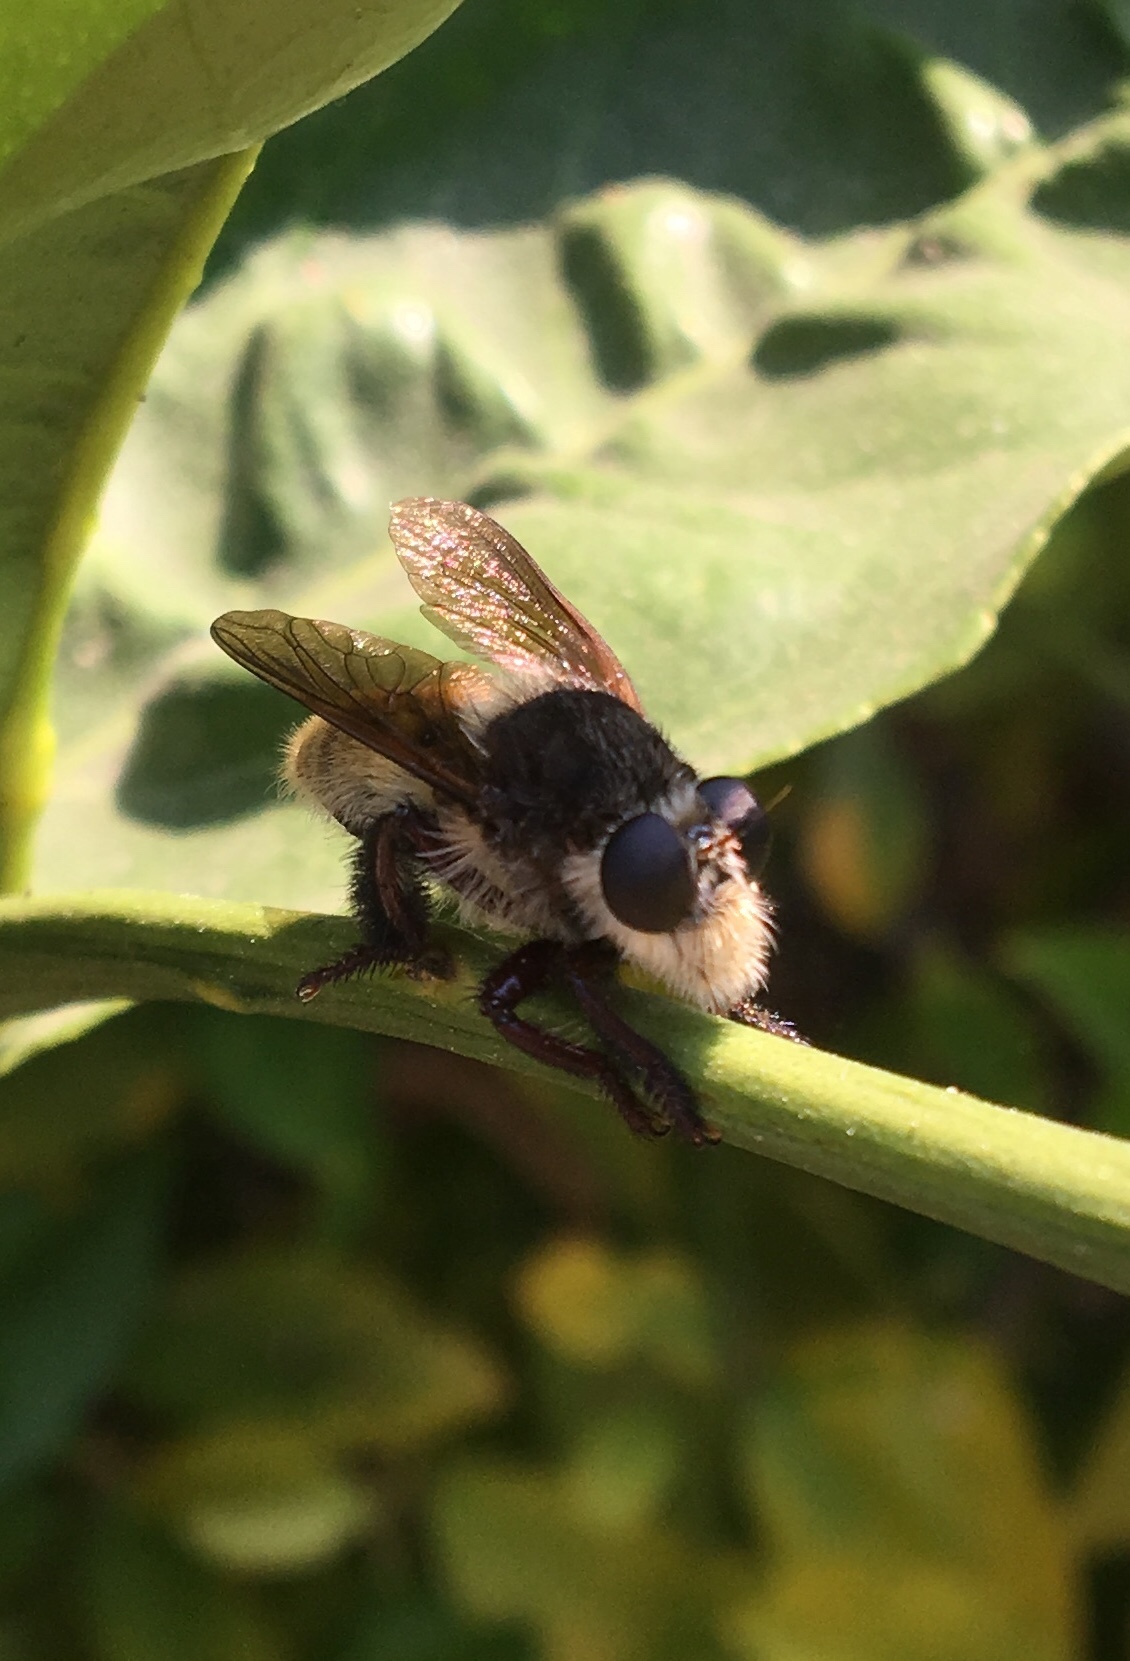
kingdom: Animalia
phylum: Arthropoda
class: Insecta
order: Diptera
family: Asilidae
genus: Mallophora
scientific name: Mallophora fautrix
